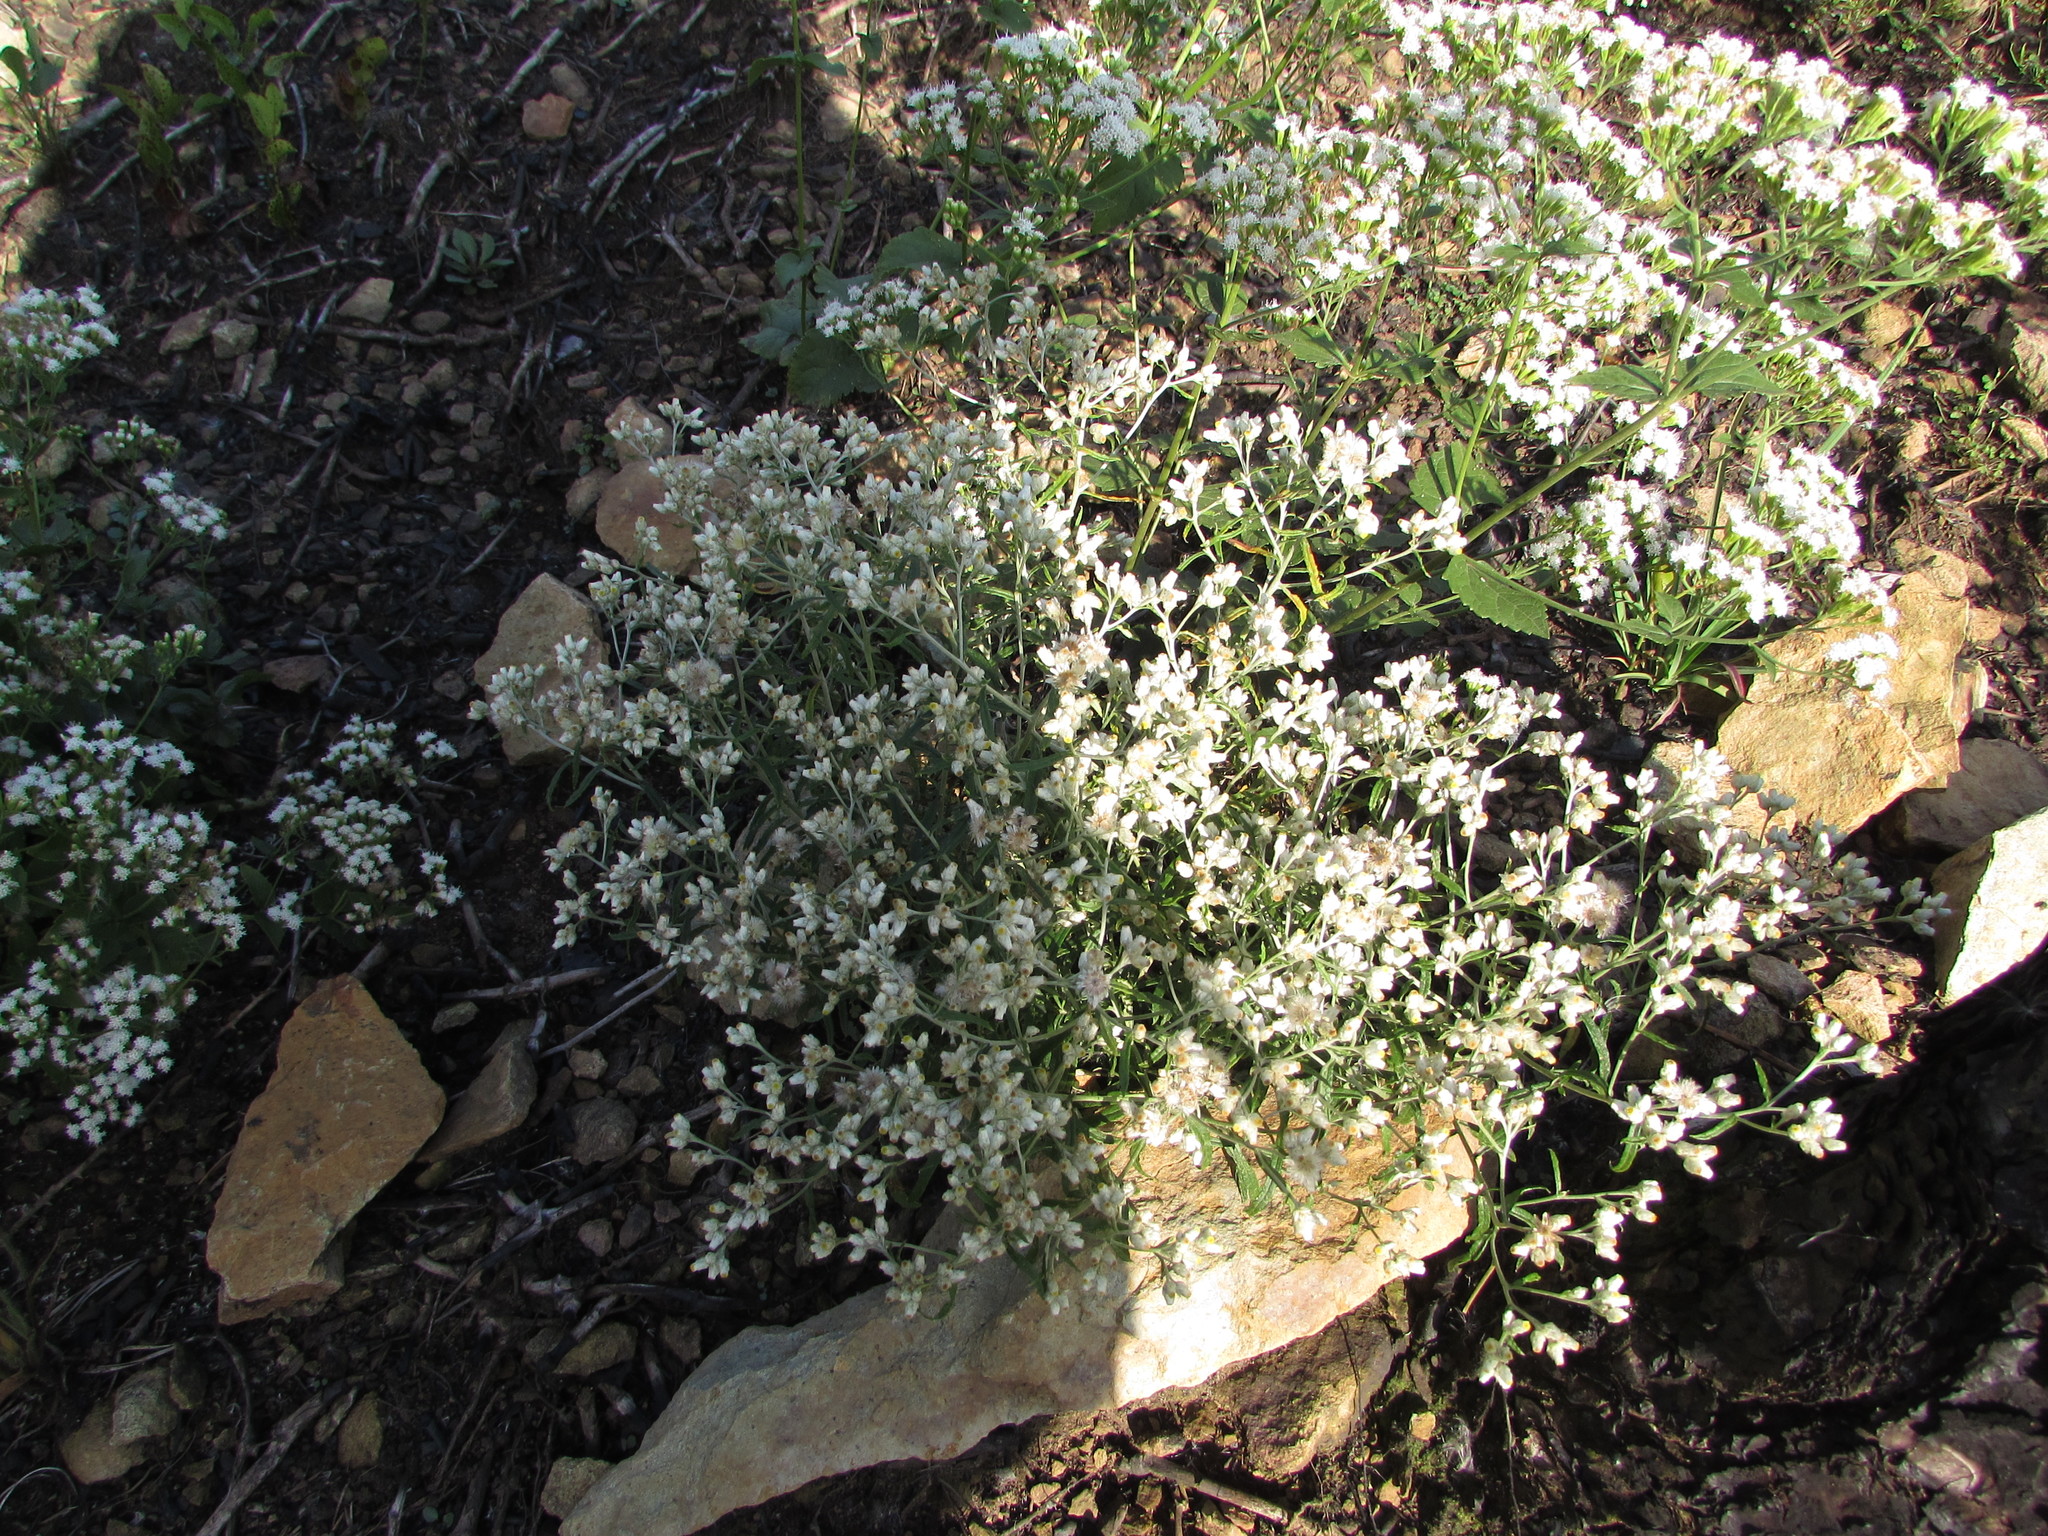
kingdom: Plantae
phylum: Tracheophyta
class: Magnoliopsida
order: Asterales
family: Asteraceae
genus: Pseudognaphalium
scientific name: Pseudognaphalium obtusifolium
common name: Eastern rabbit-tobacco
